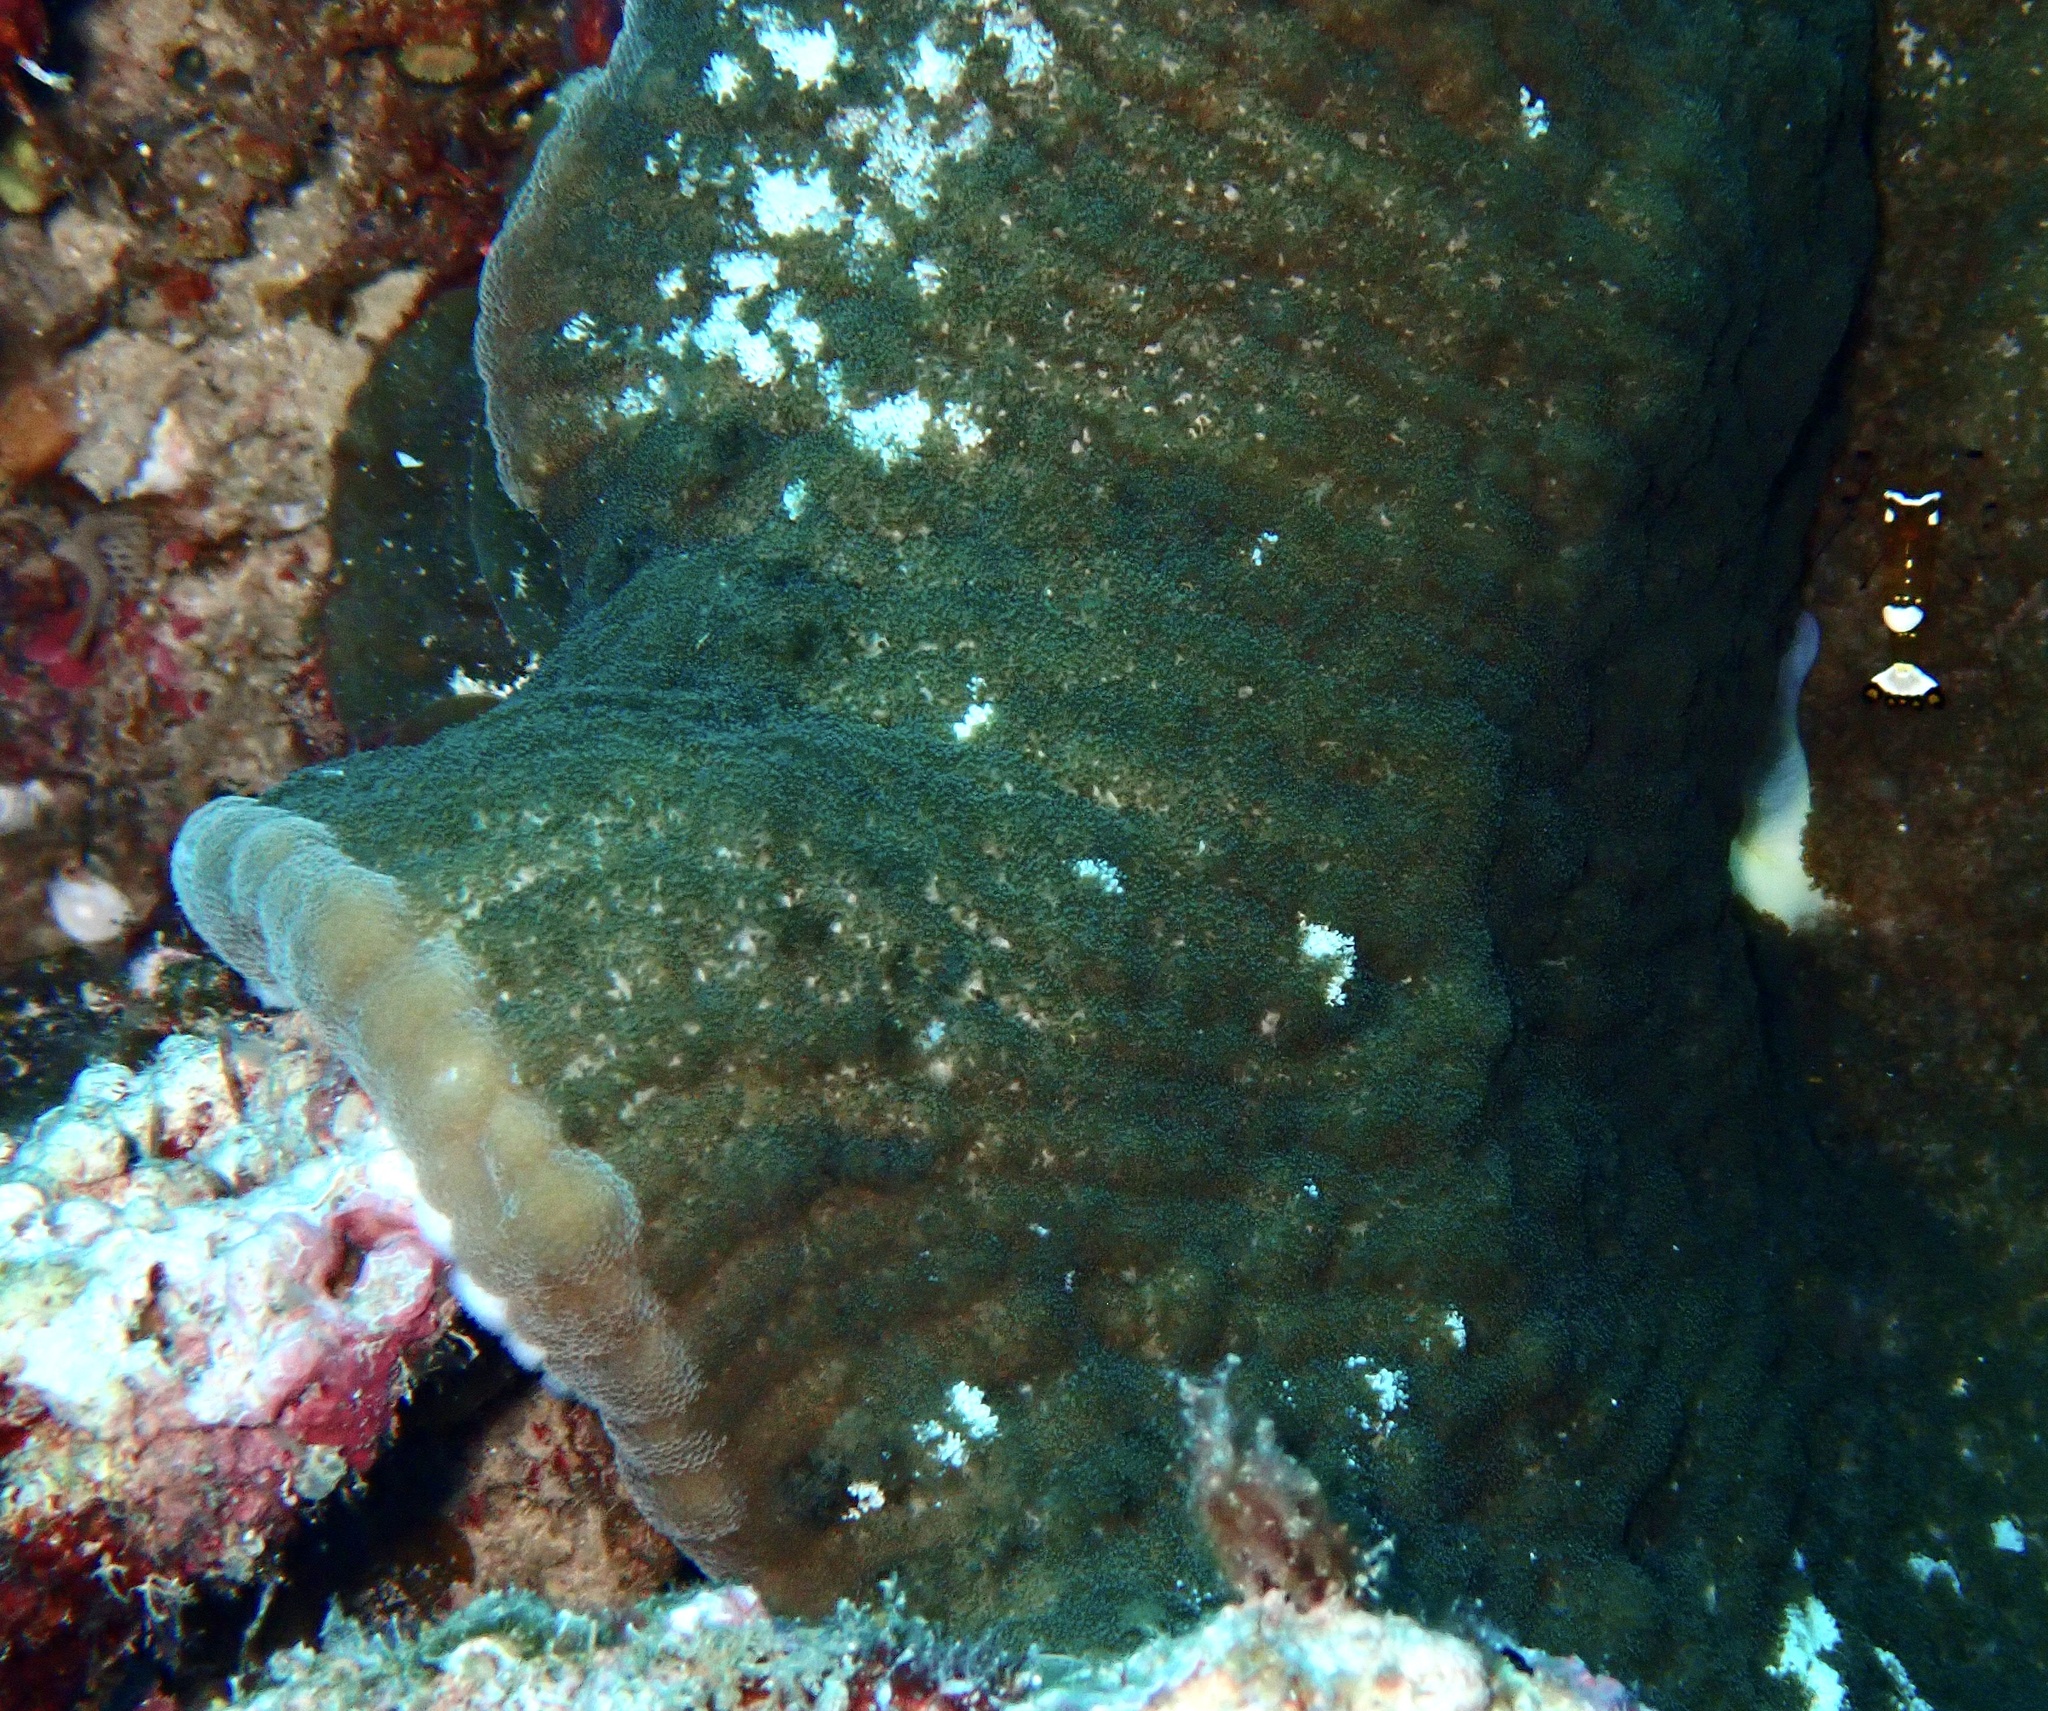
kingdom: Animalia
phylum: Cnidaria
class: Anthozoa
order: Actiniaria
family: Thalassianthidae
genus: Cryptodendrum
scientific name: Cryptodendrum adhaesivum
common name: Adhesive sea anemone
